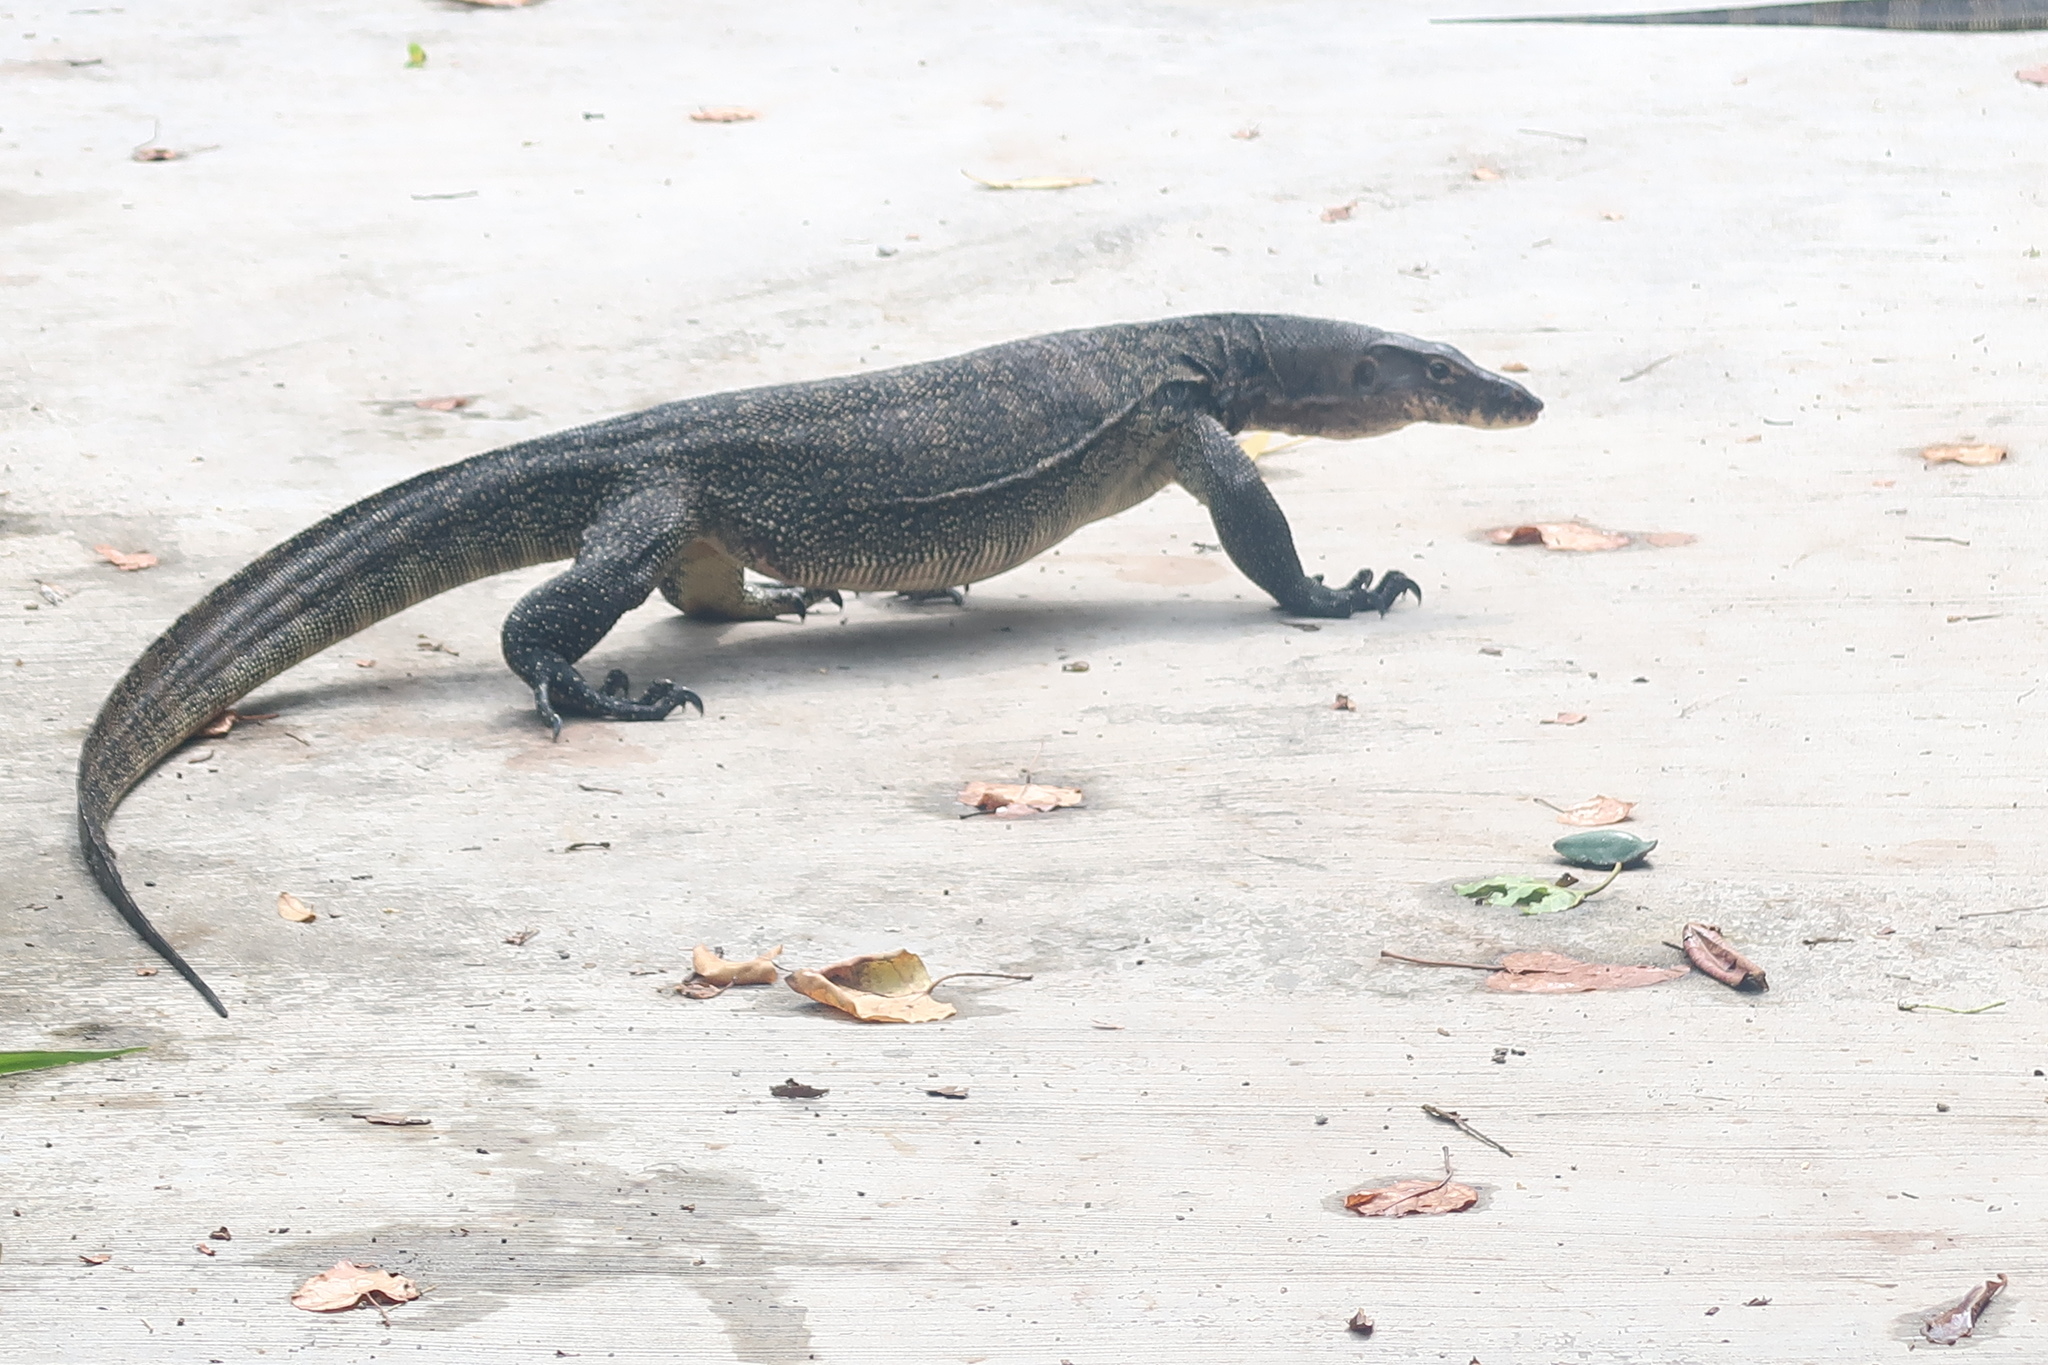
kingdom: Animalia
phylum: Chordata
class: Squamata
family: Varanidae
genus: Varanus
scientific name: Varanus salvator
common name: Common water monitor
